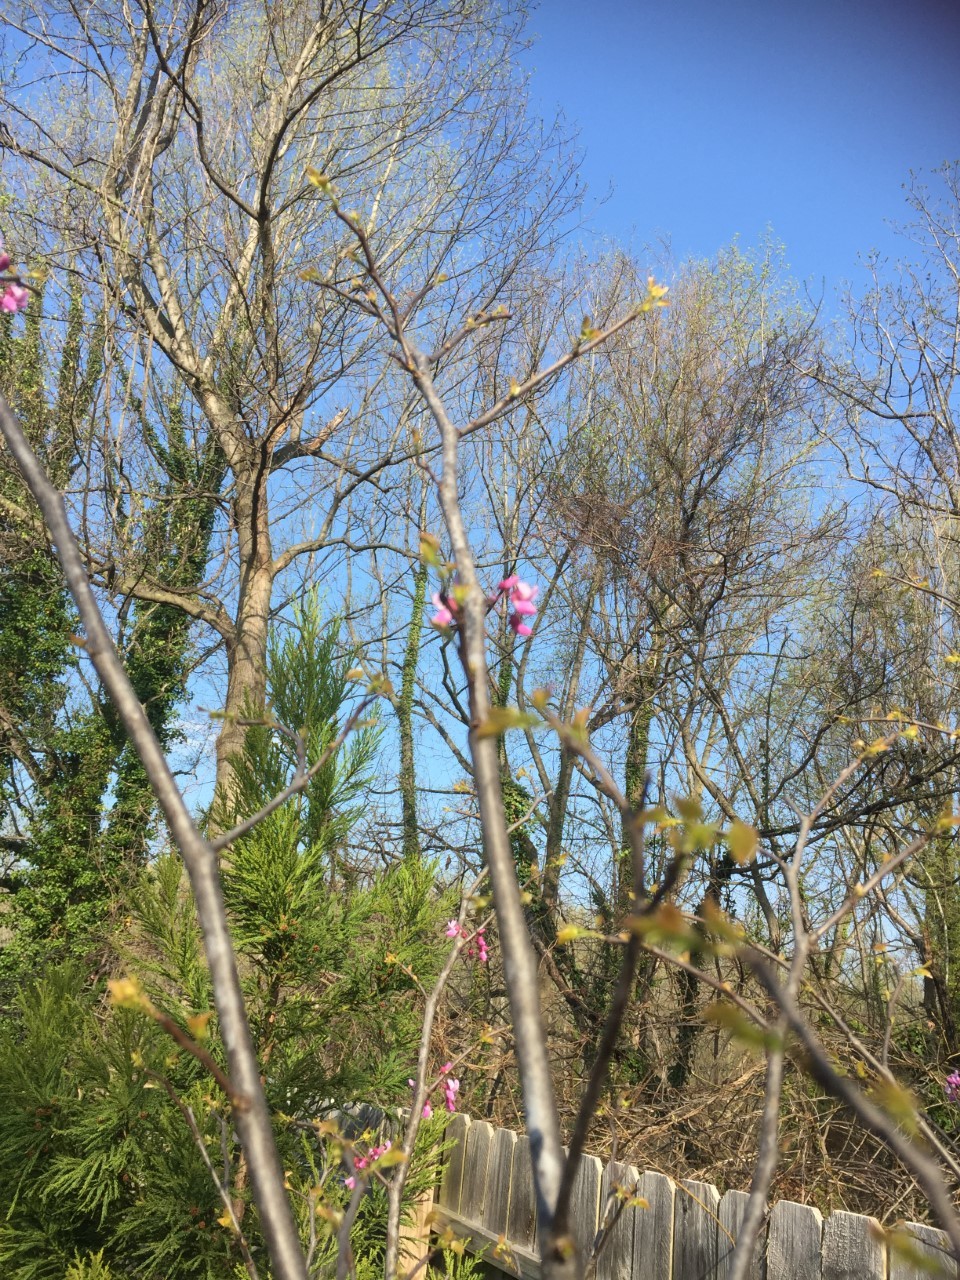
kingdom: Plantae
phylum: Tracheophyta
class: Magnoliopsida
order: Fabales
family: Fabaceae
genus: Cercis
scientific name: Cercis canadensis
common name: Eastern redbud
